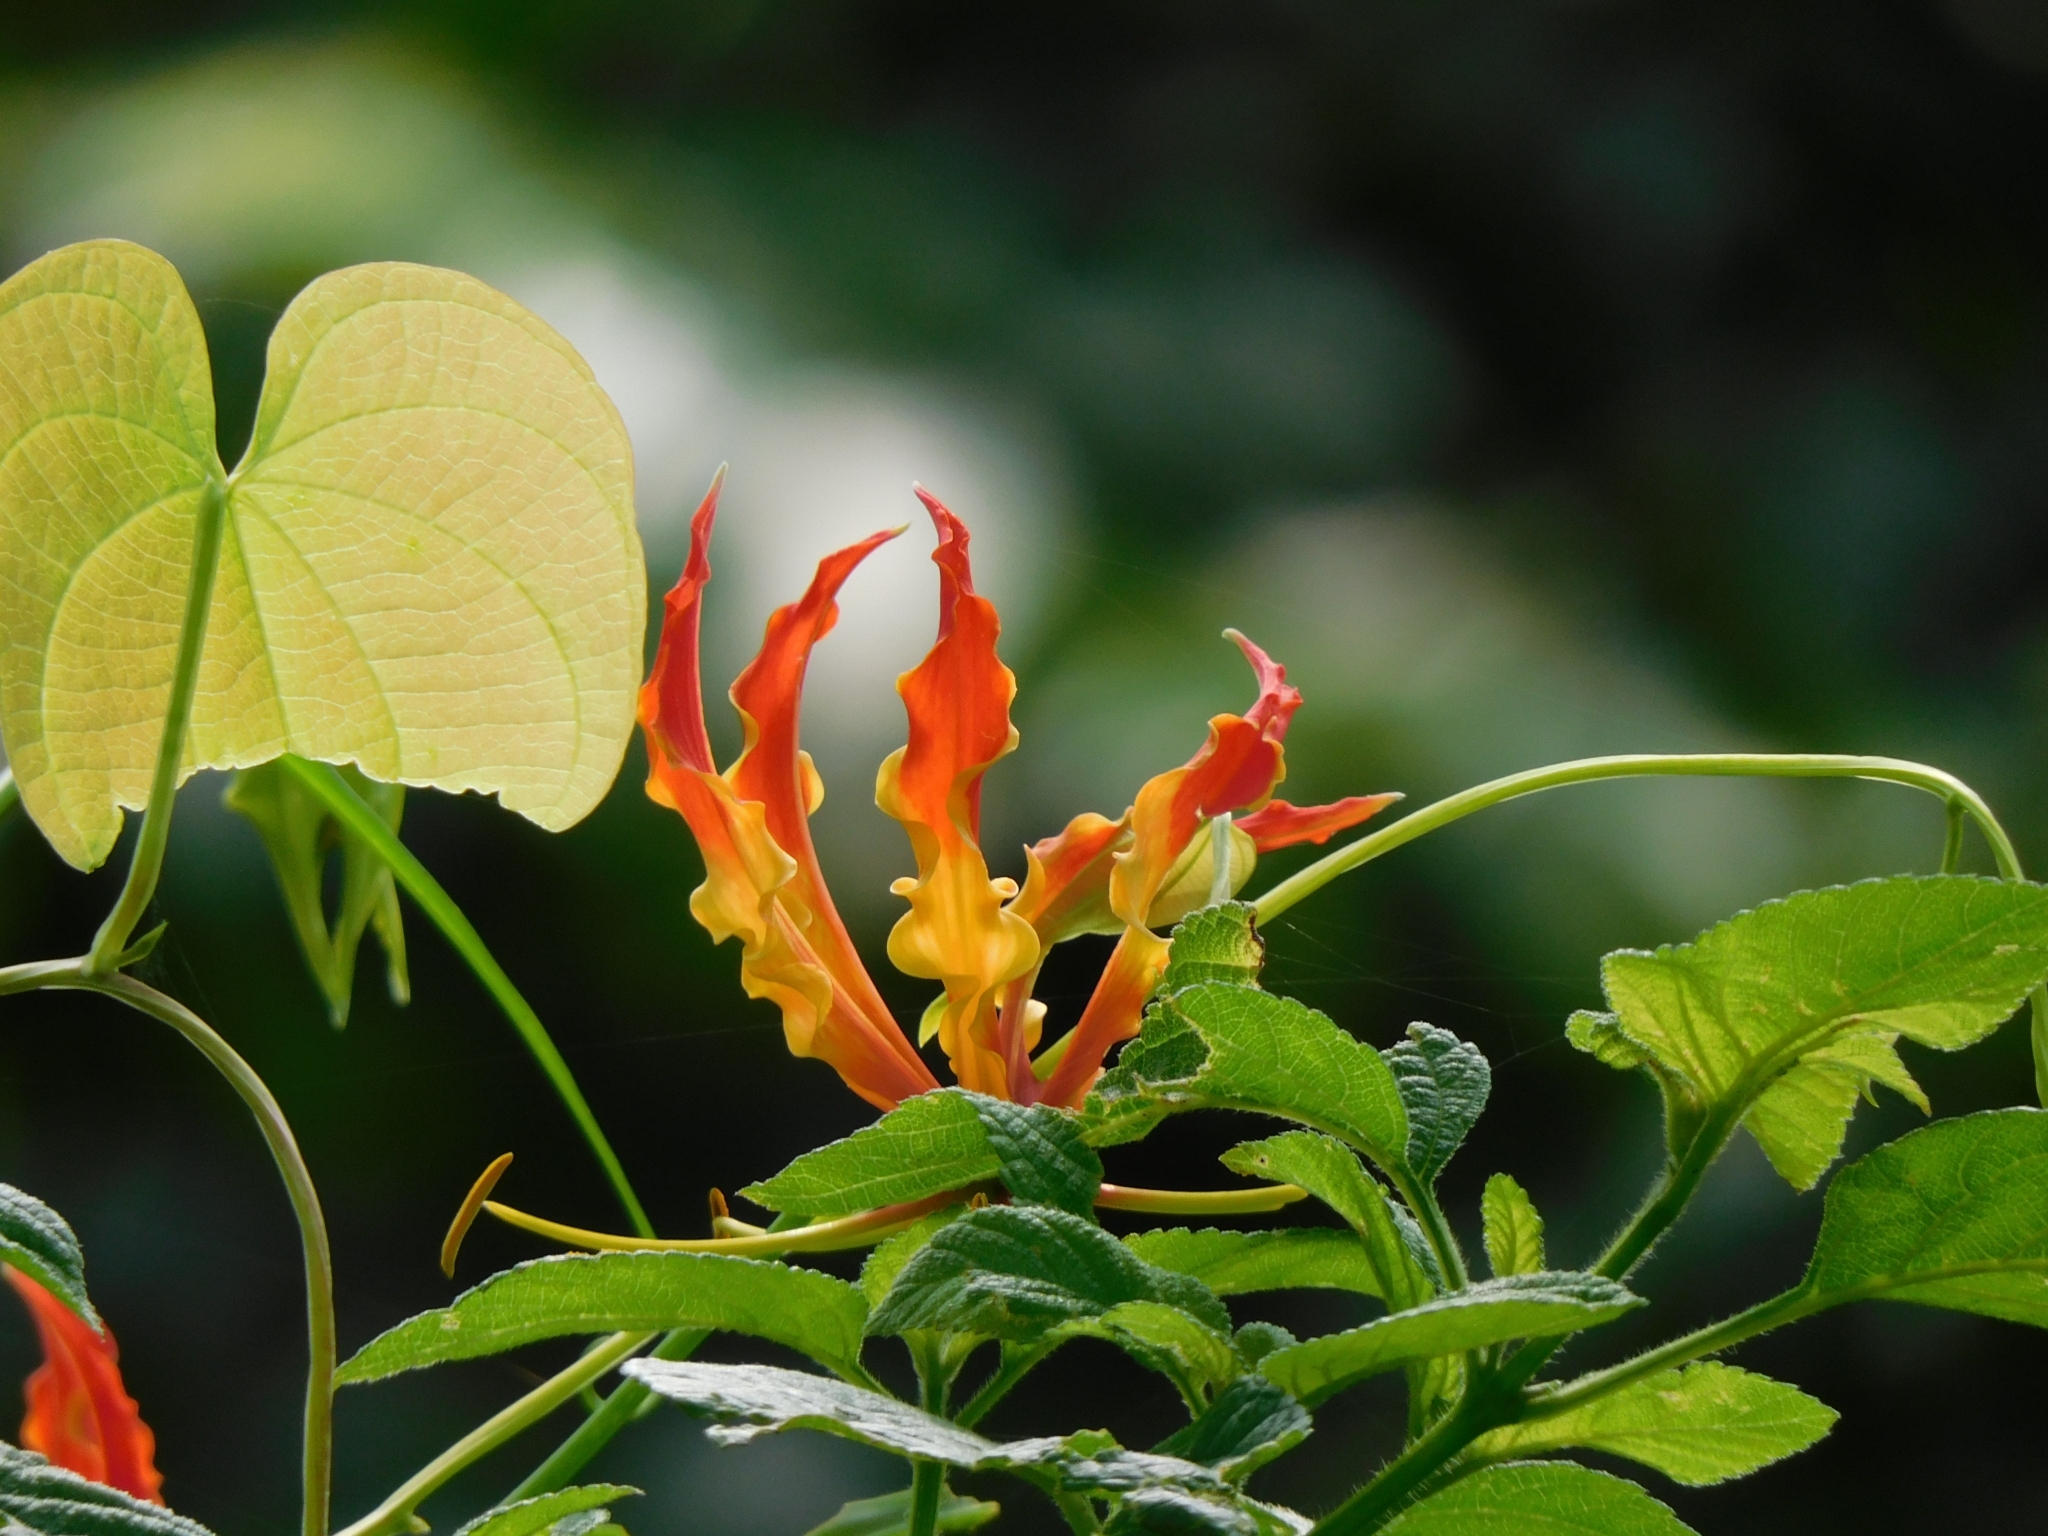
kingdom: Plantae
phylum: Tracheophyta
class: Liliopsida
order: Liliales
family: Colchicaceae
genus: Gloriosa
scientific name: Gloriosa superba
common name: Flame lily
